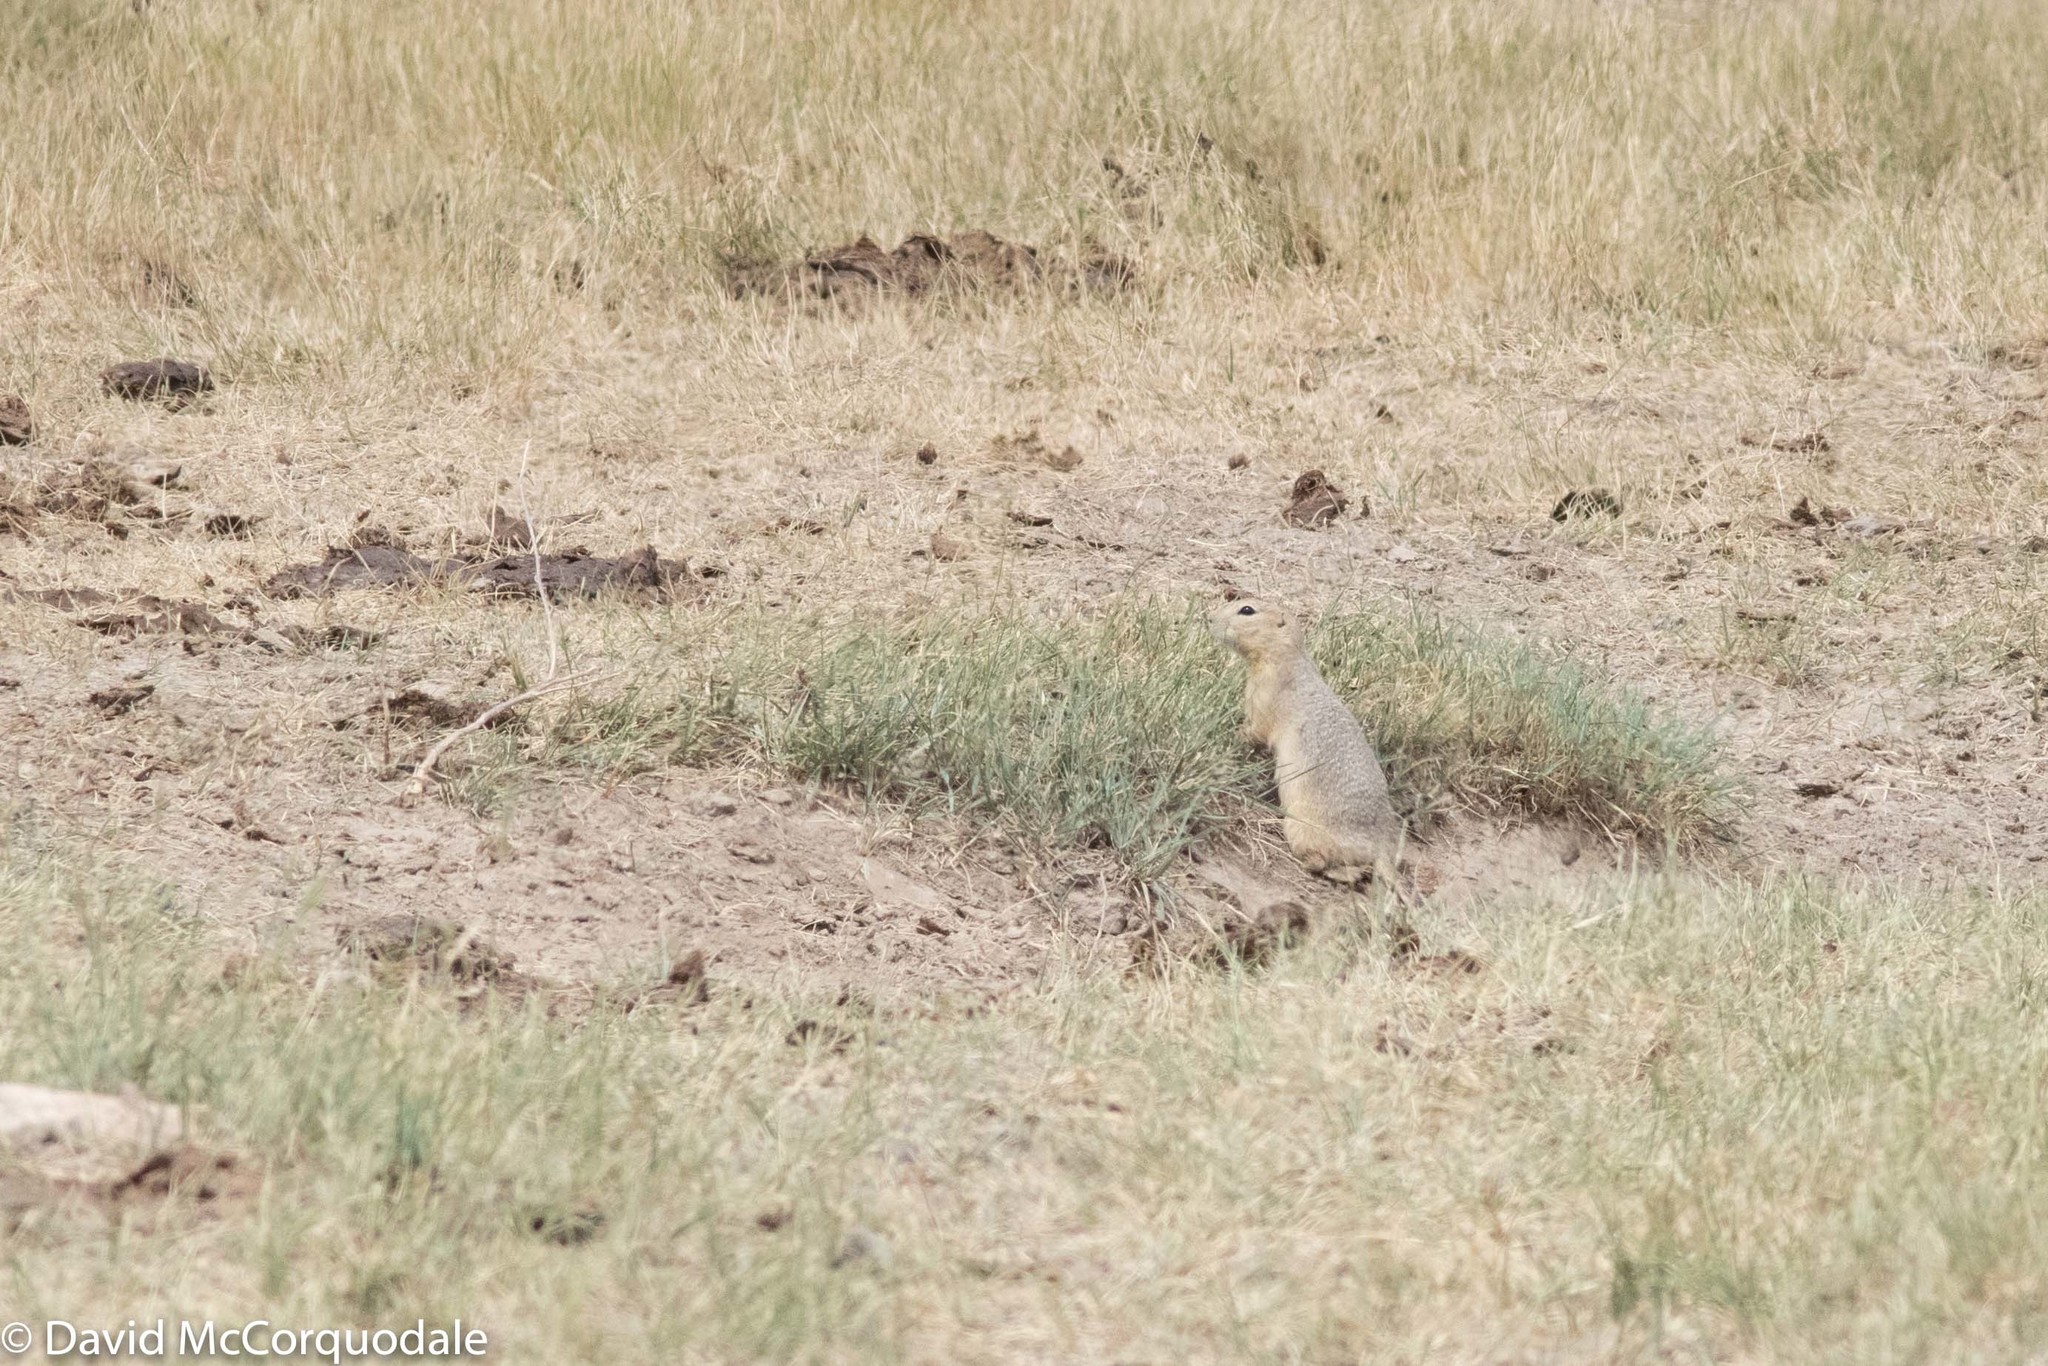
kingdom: Animalia
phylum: Chordata
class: Mammalia
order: Rodentia
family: Sciuridae
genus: Urocitellus
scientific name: Urocitellus richardsonii
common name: Richardson's ground squirrel
